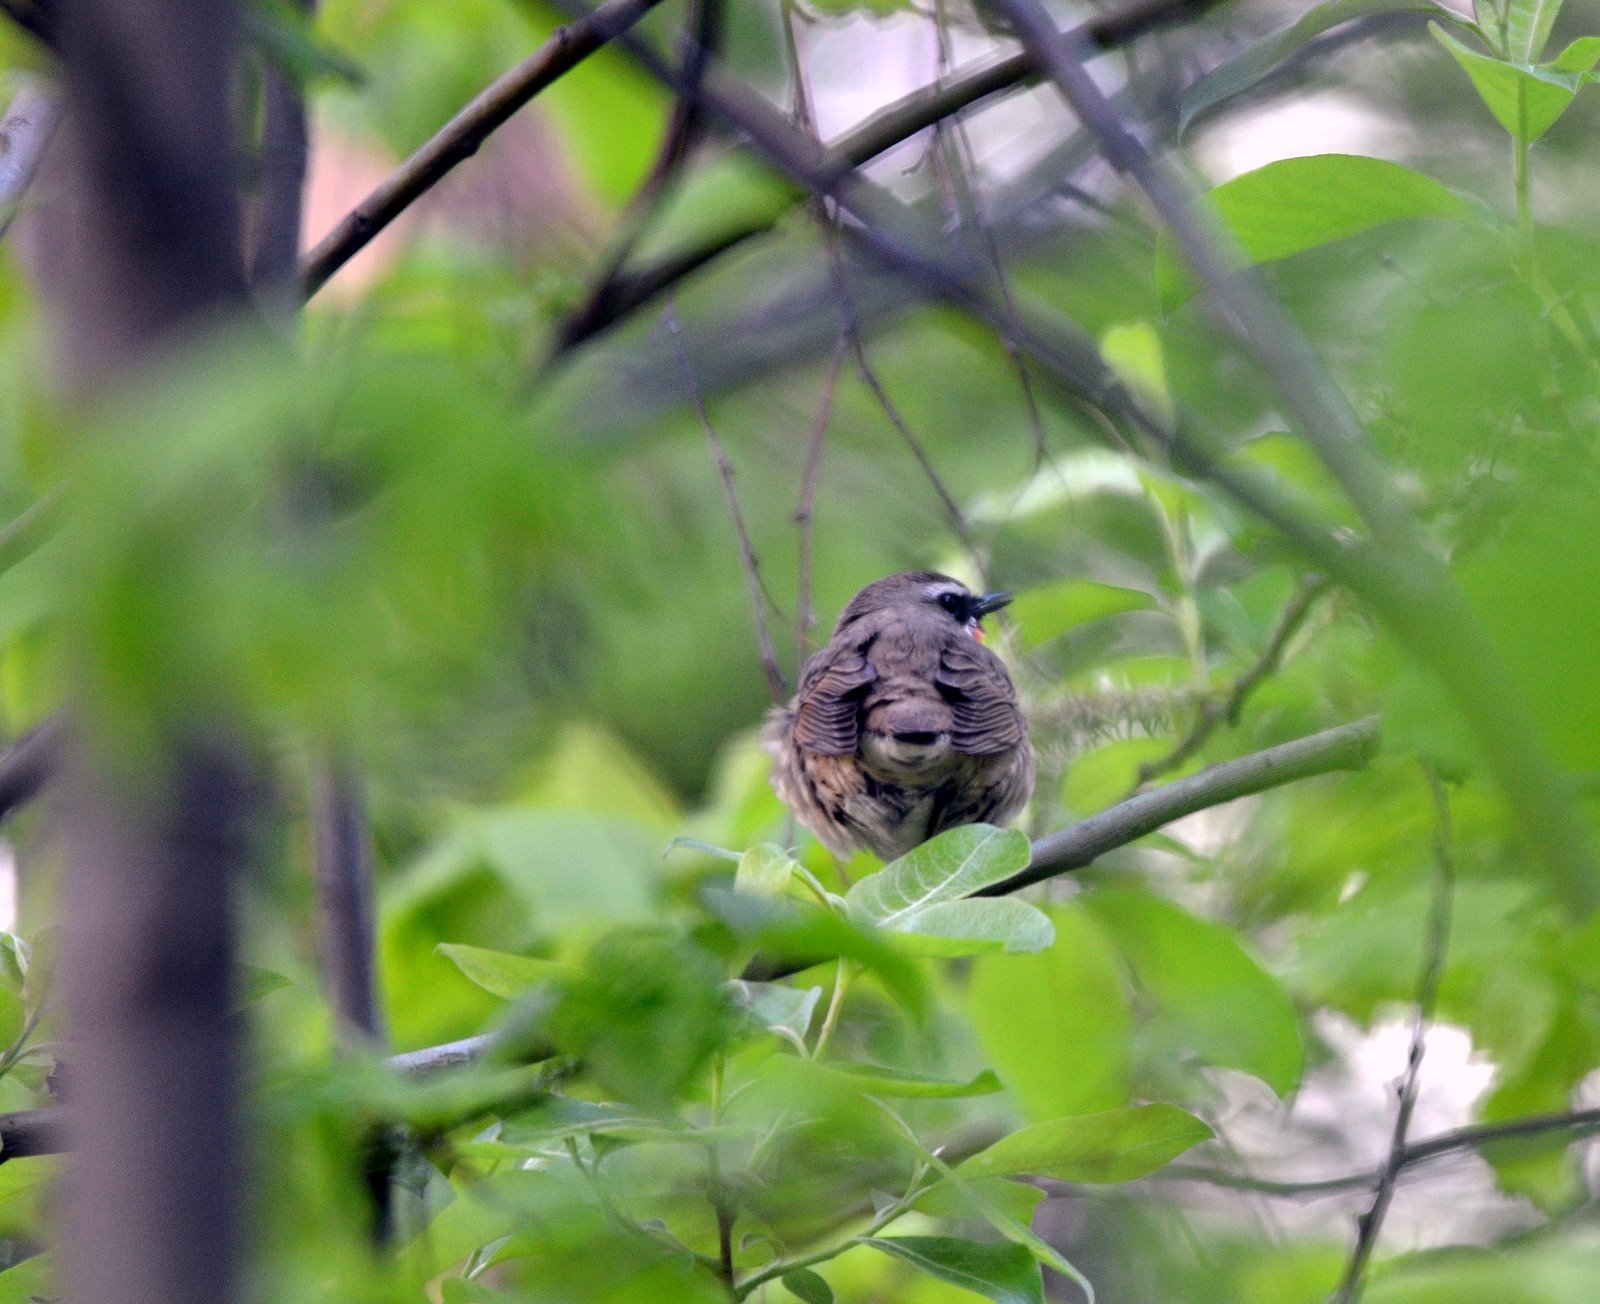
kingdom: Animalia
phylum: Chordata
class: Aves
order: Passeriformes
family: Muscicapidae
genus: Luscinia
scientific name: Luscinia calliope
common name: Siberian rubythroat
